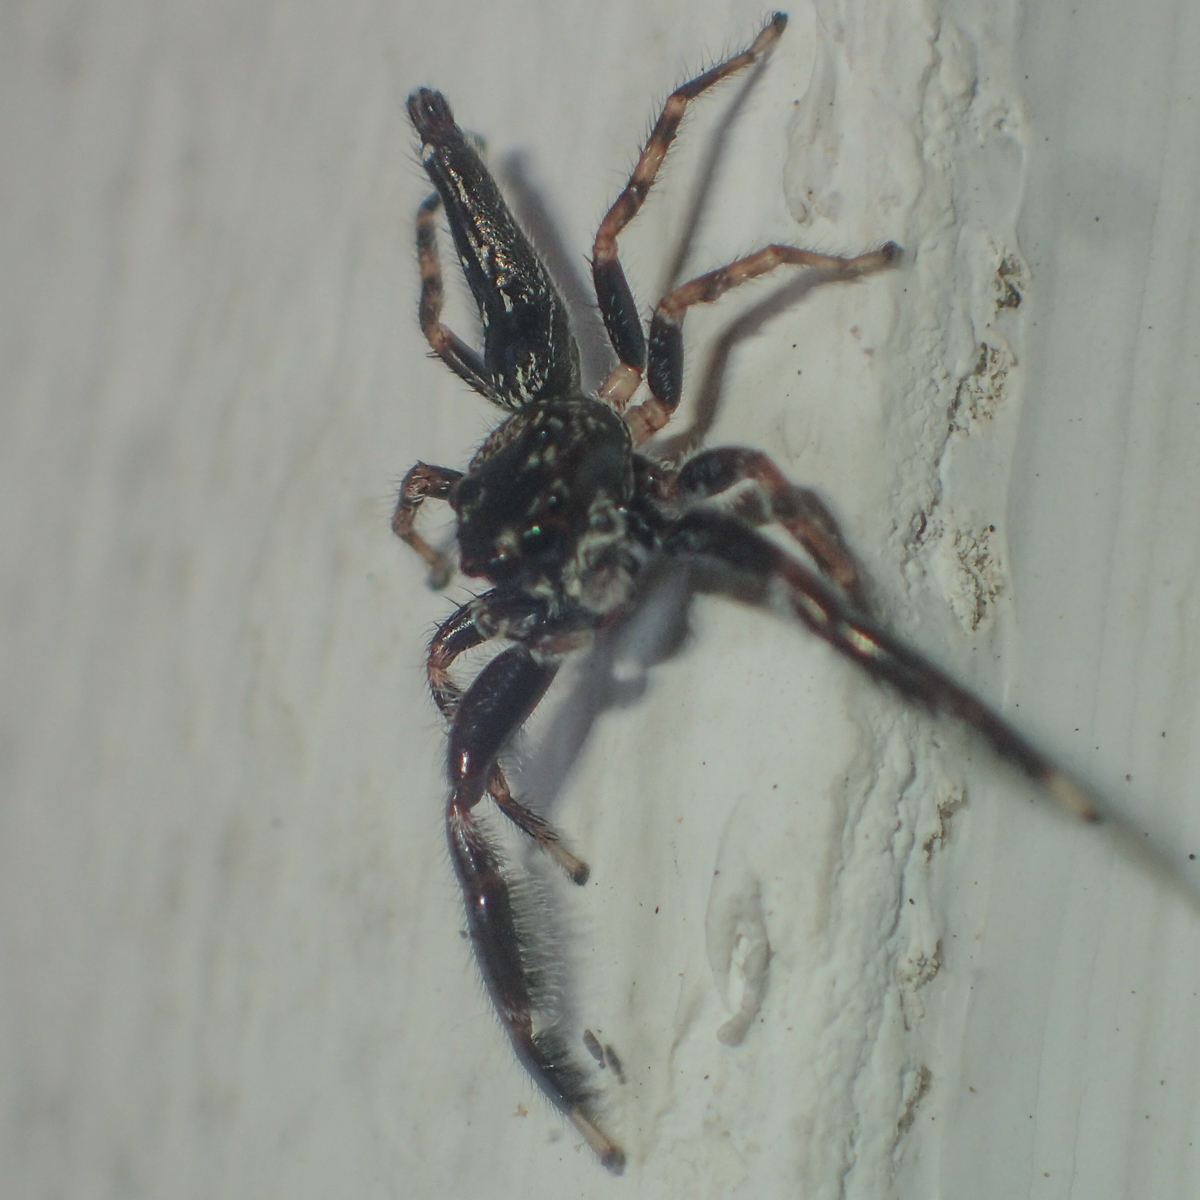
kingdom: Animalia
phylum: Arthropoda
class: Arachnida
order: Araneae
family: Salticidae
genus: Bavia
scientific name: Bavia sexpunctata
